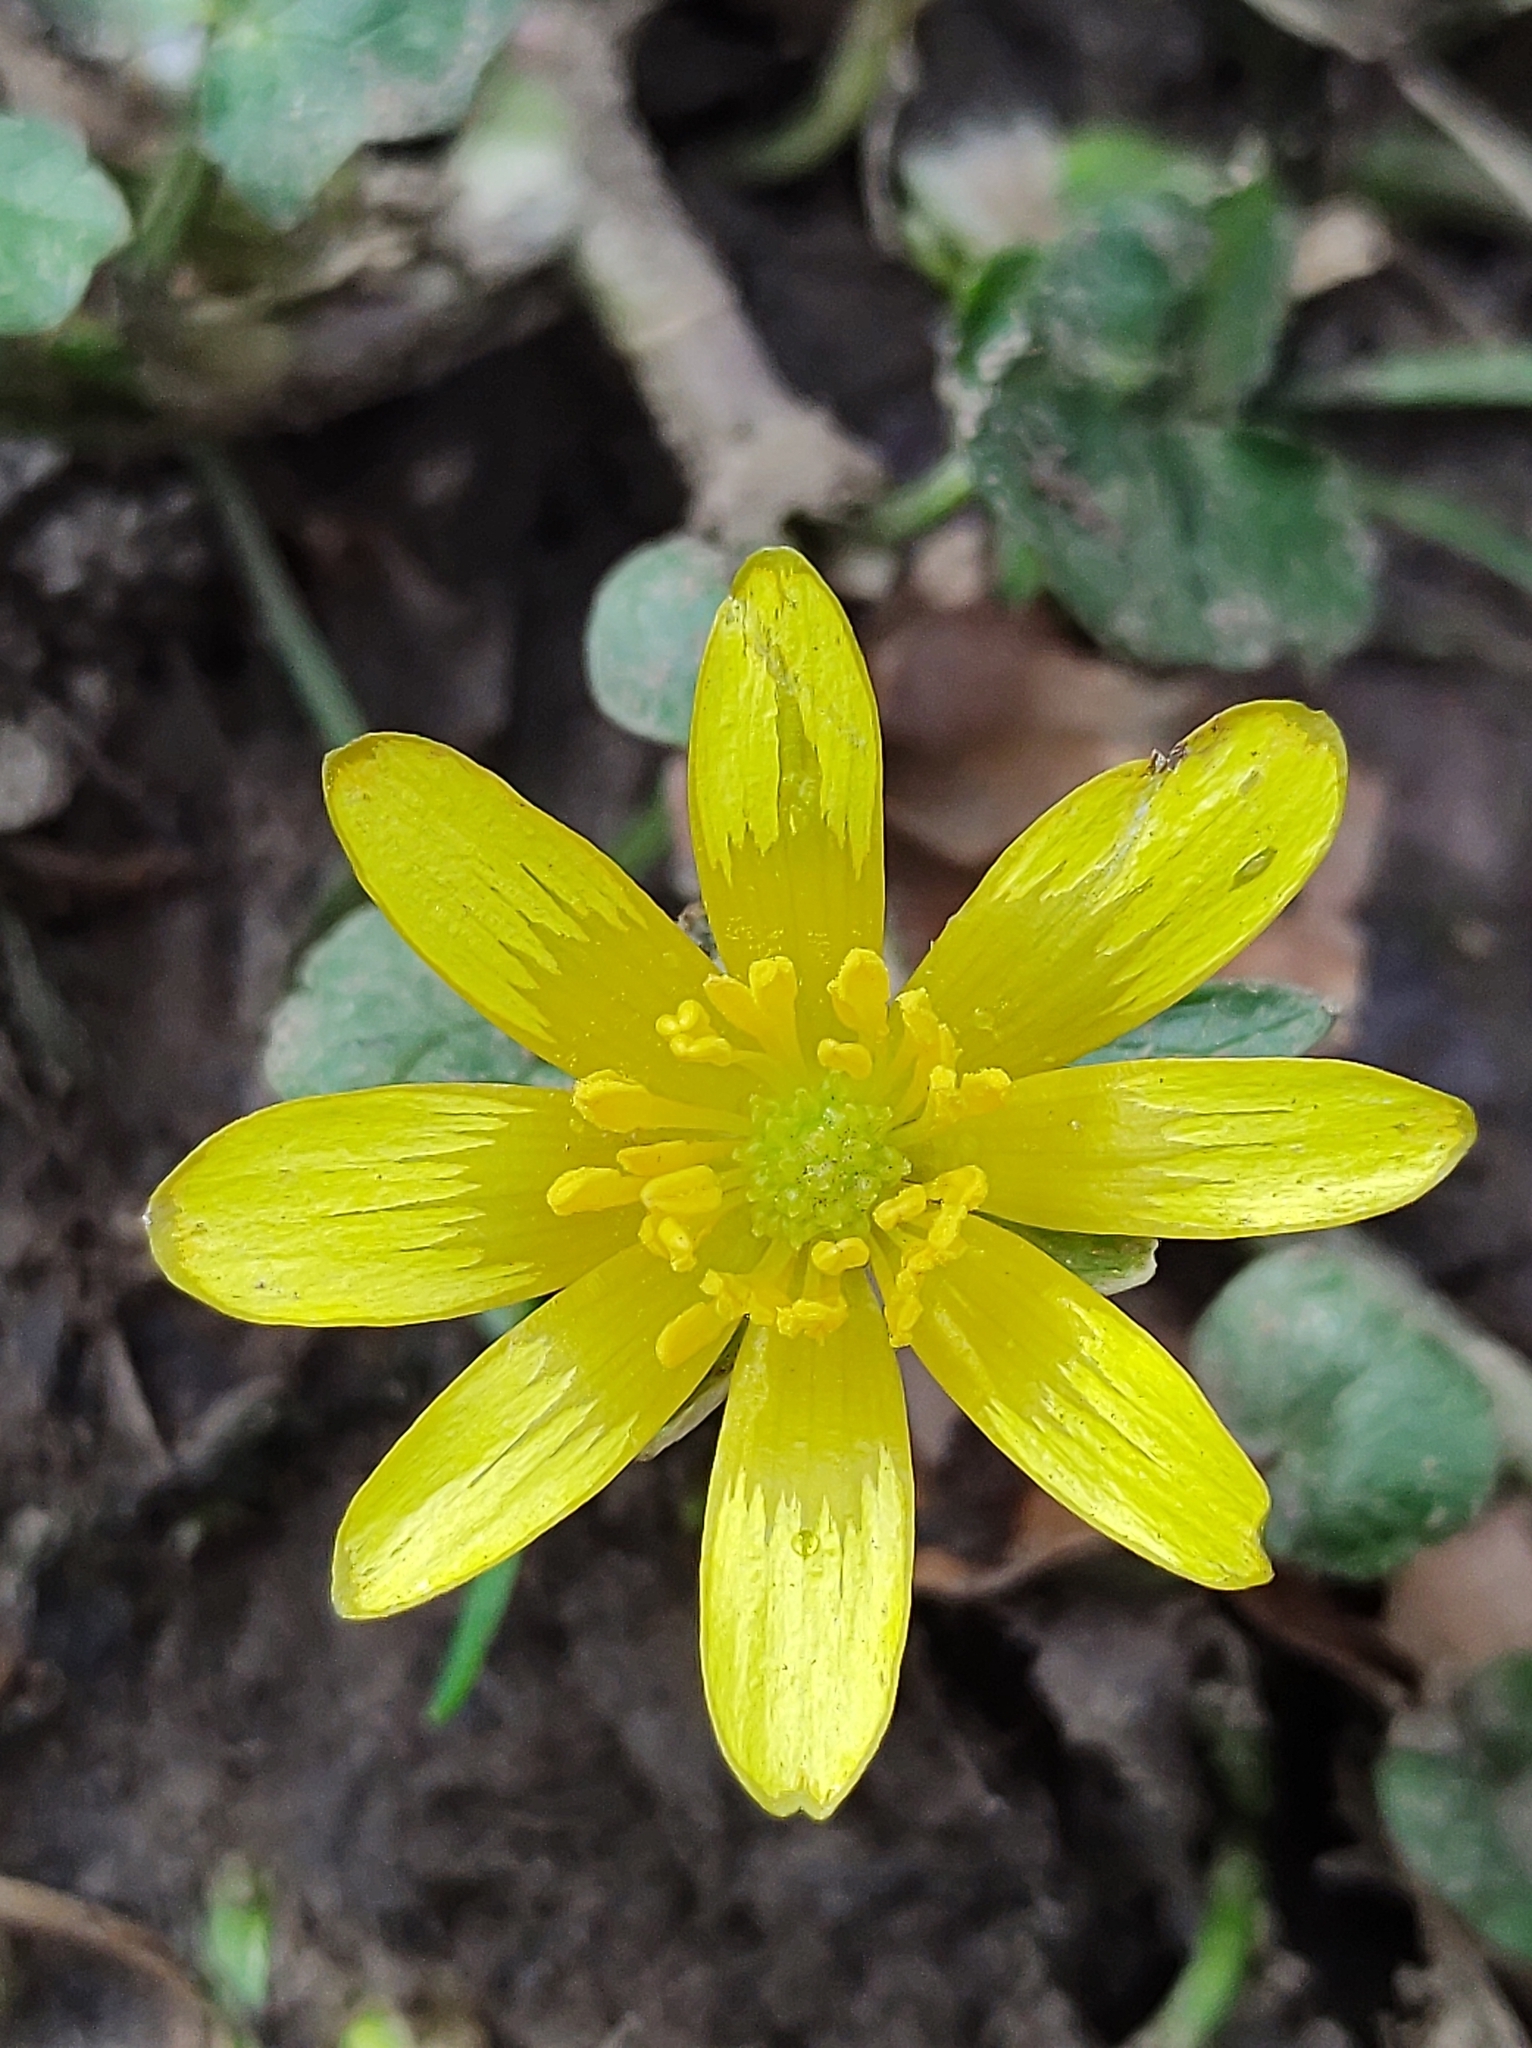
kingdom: Plantae
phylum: Tracheophyta
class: Magnoliopsida
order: Ranunculales
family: Ranunculaceae
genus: Ficaria
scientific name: Ficaria verna
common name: Lesser celandine
